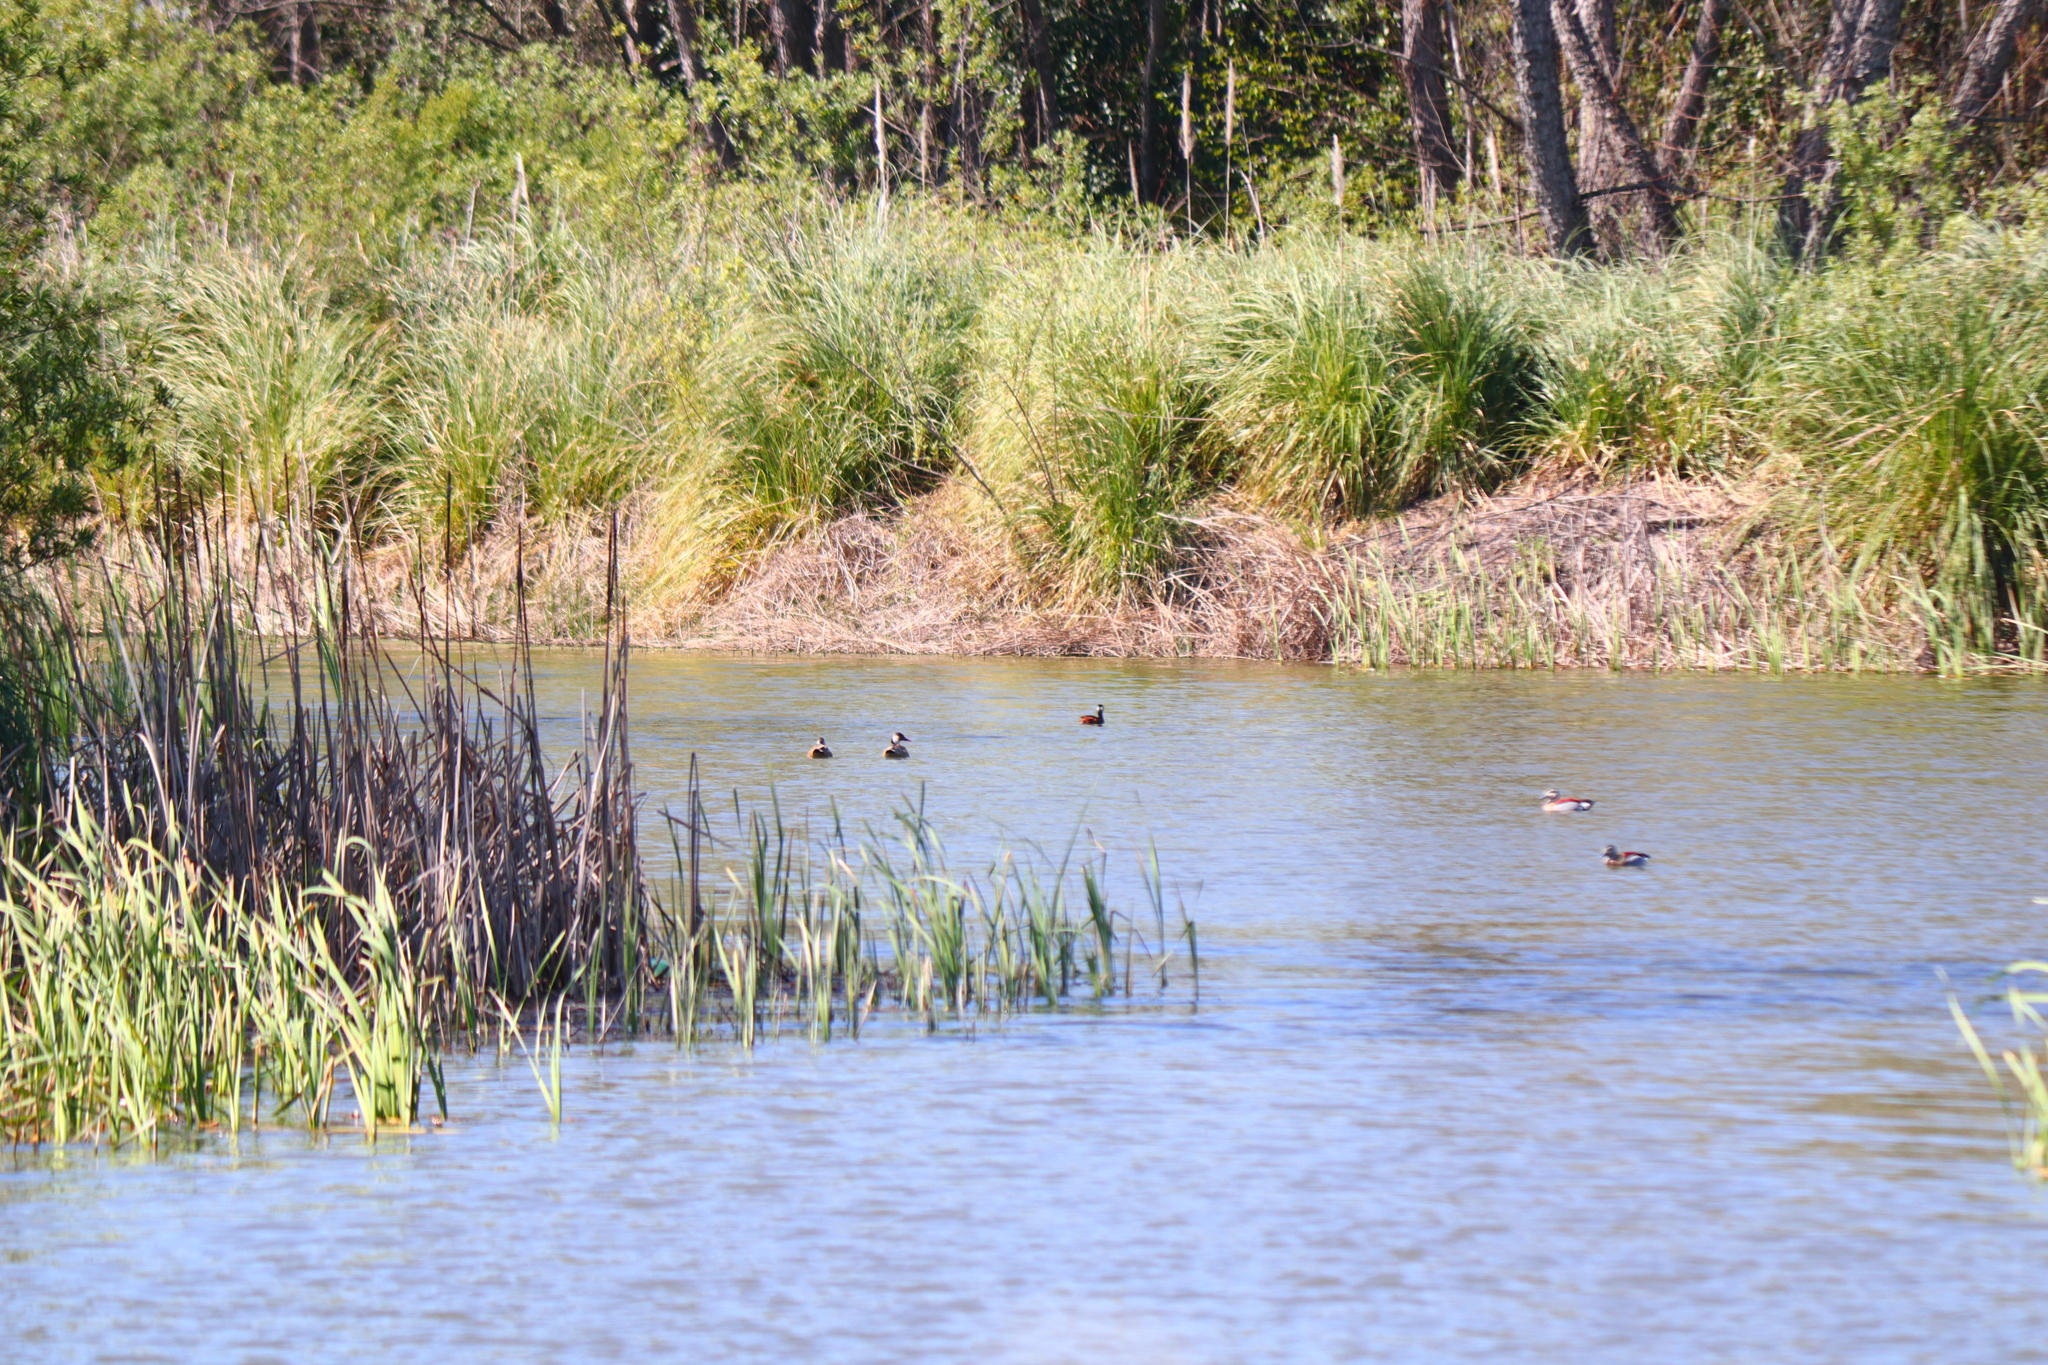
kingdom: Animalia
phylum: Chordata
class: Aves
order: Anseriformes
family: Anatidae
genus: Callonetta
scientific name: Callonetta leucophrys
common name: Ringed teal
